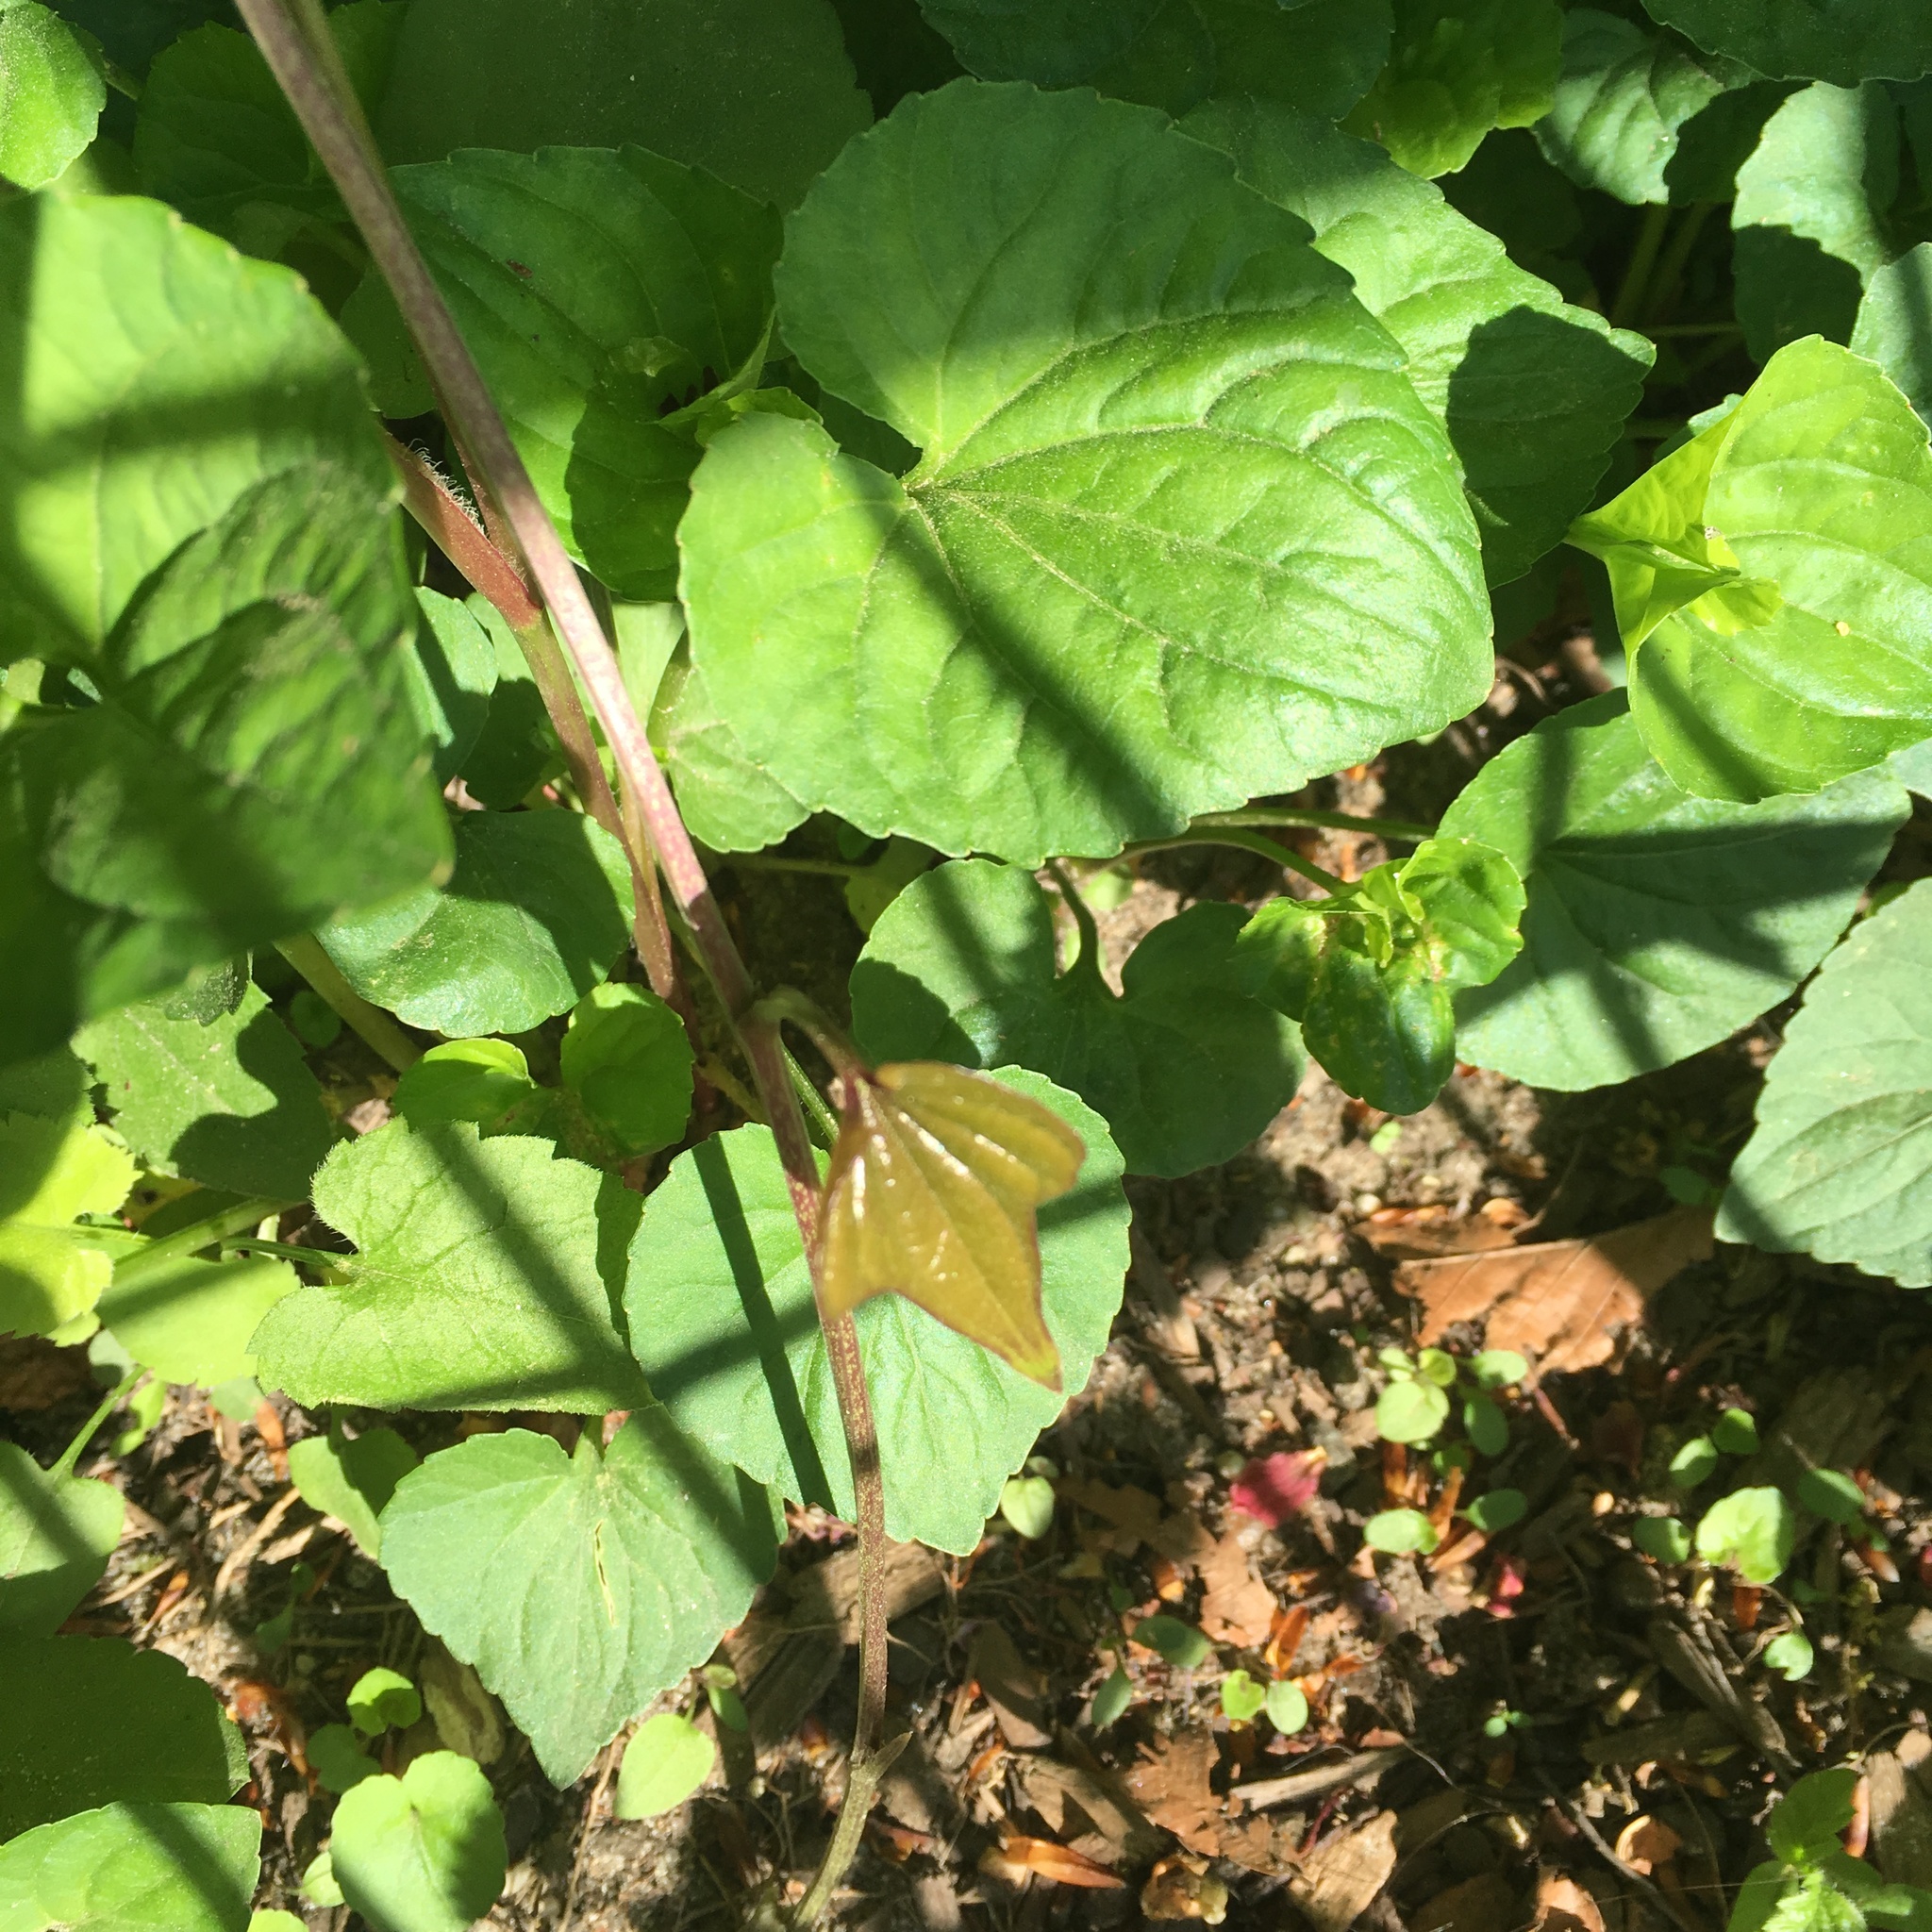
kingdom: Plantae
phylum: Tracheophyta
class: Liliopsida
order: Dioscoreales
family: Dioscoreaceae
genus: Dioscorea
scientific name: Dioscorea polystachya
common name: Chinese yam
